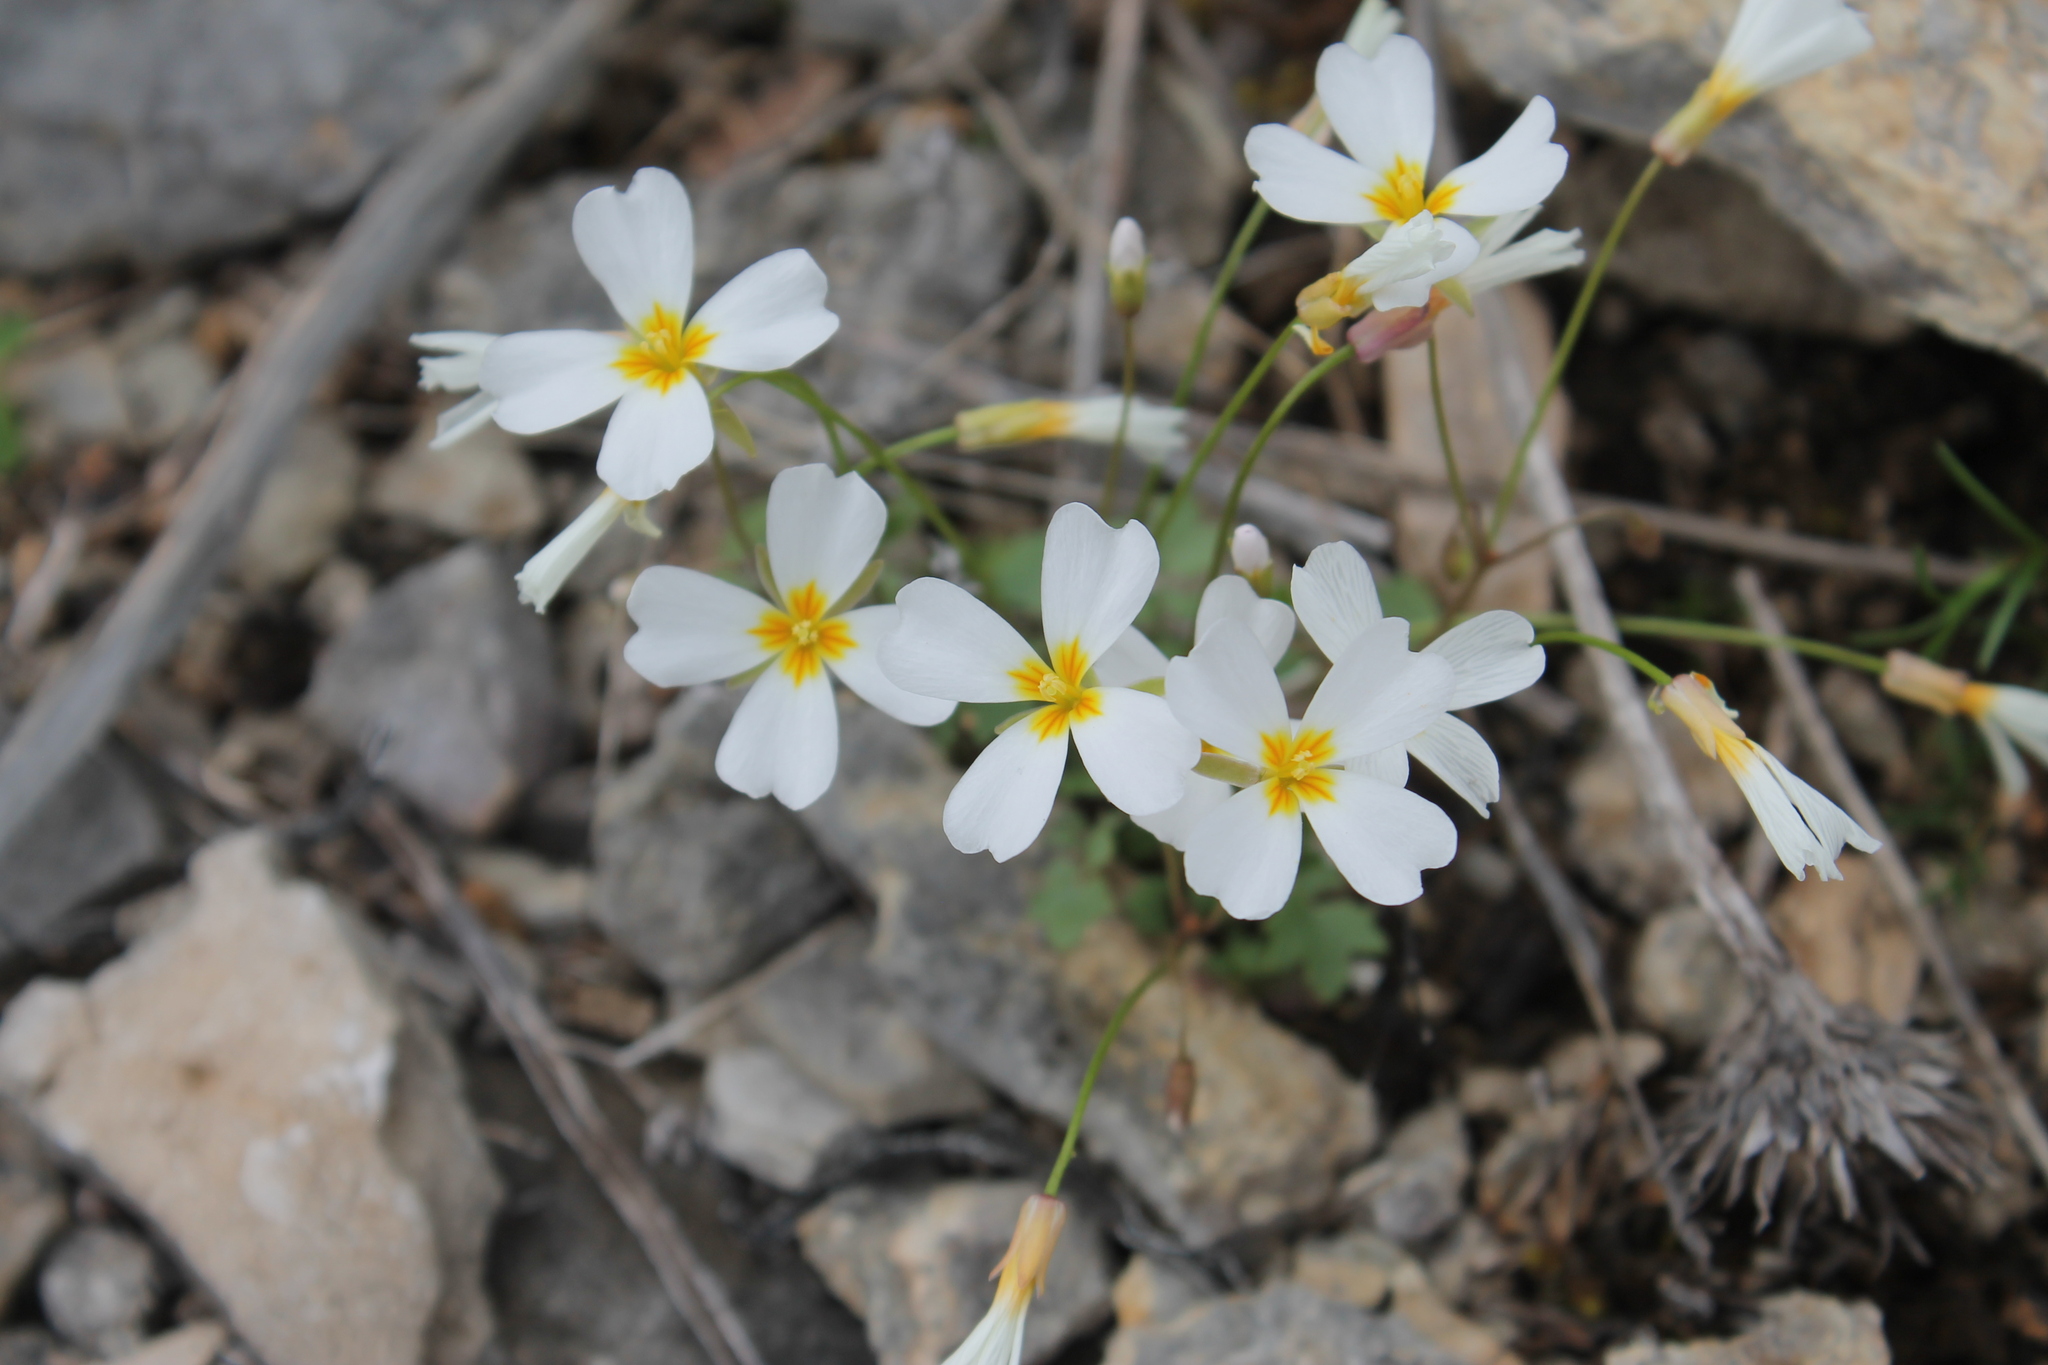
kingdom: Plantae
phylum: Tracheophyta
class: Magnoliopsida
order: Brassicales
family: Brassicaceae
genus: Leavenworthia
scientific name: Leavenworthia stylosa
